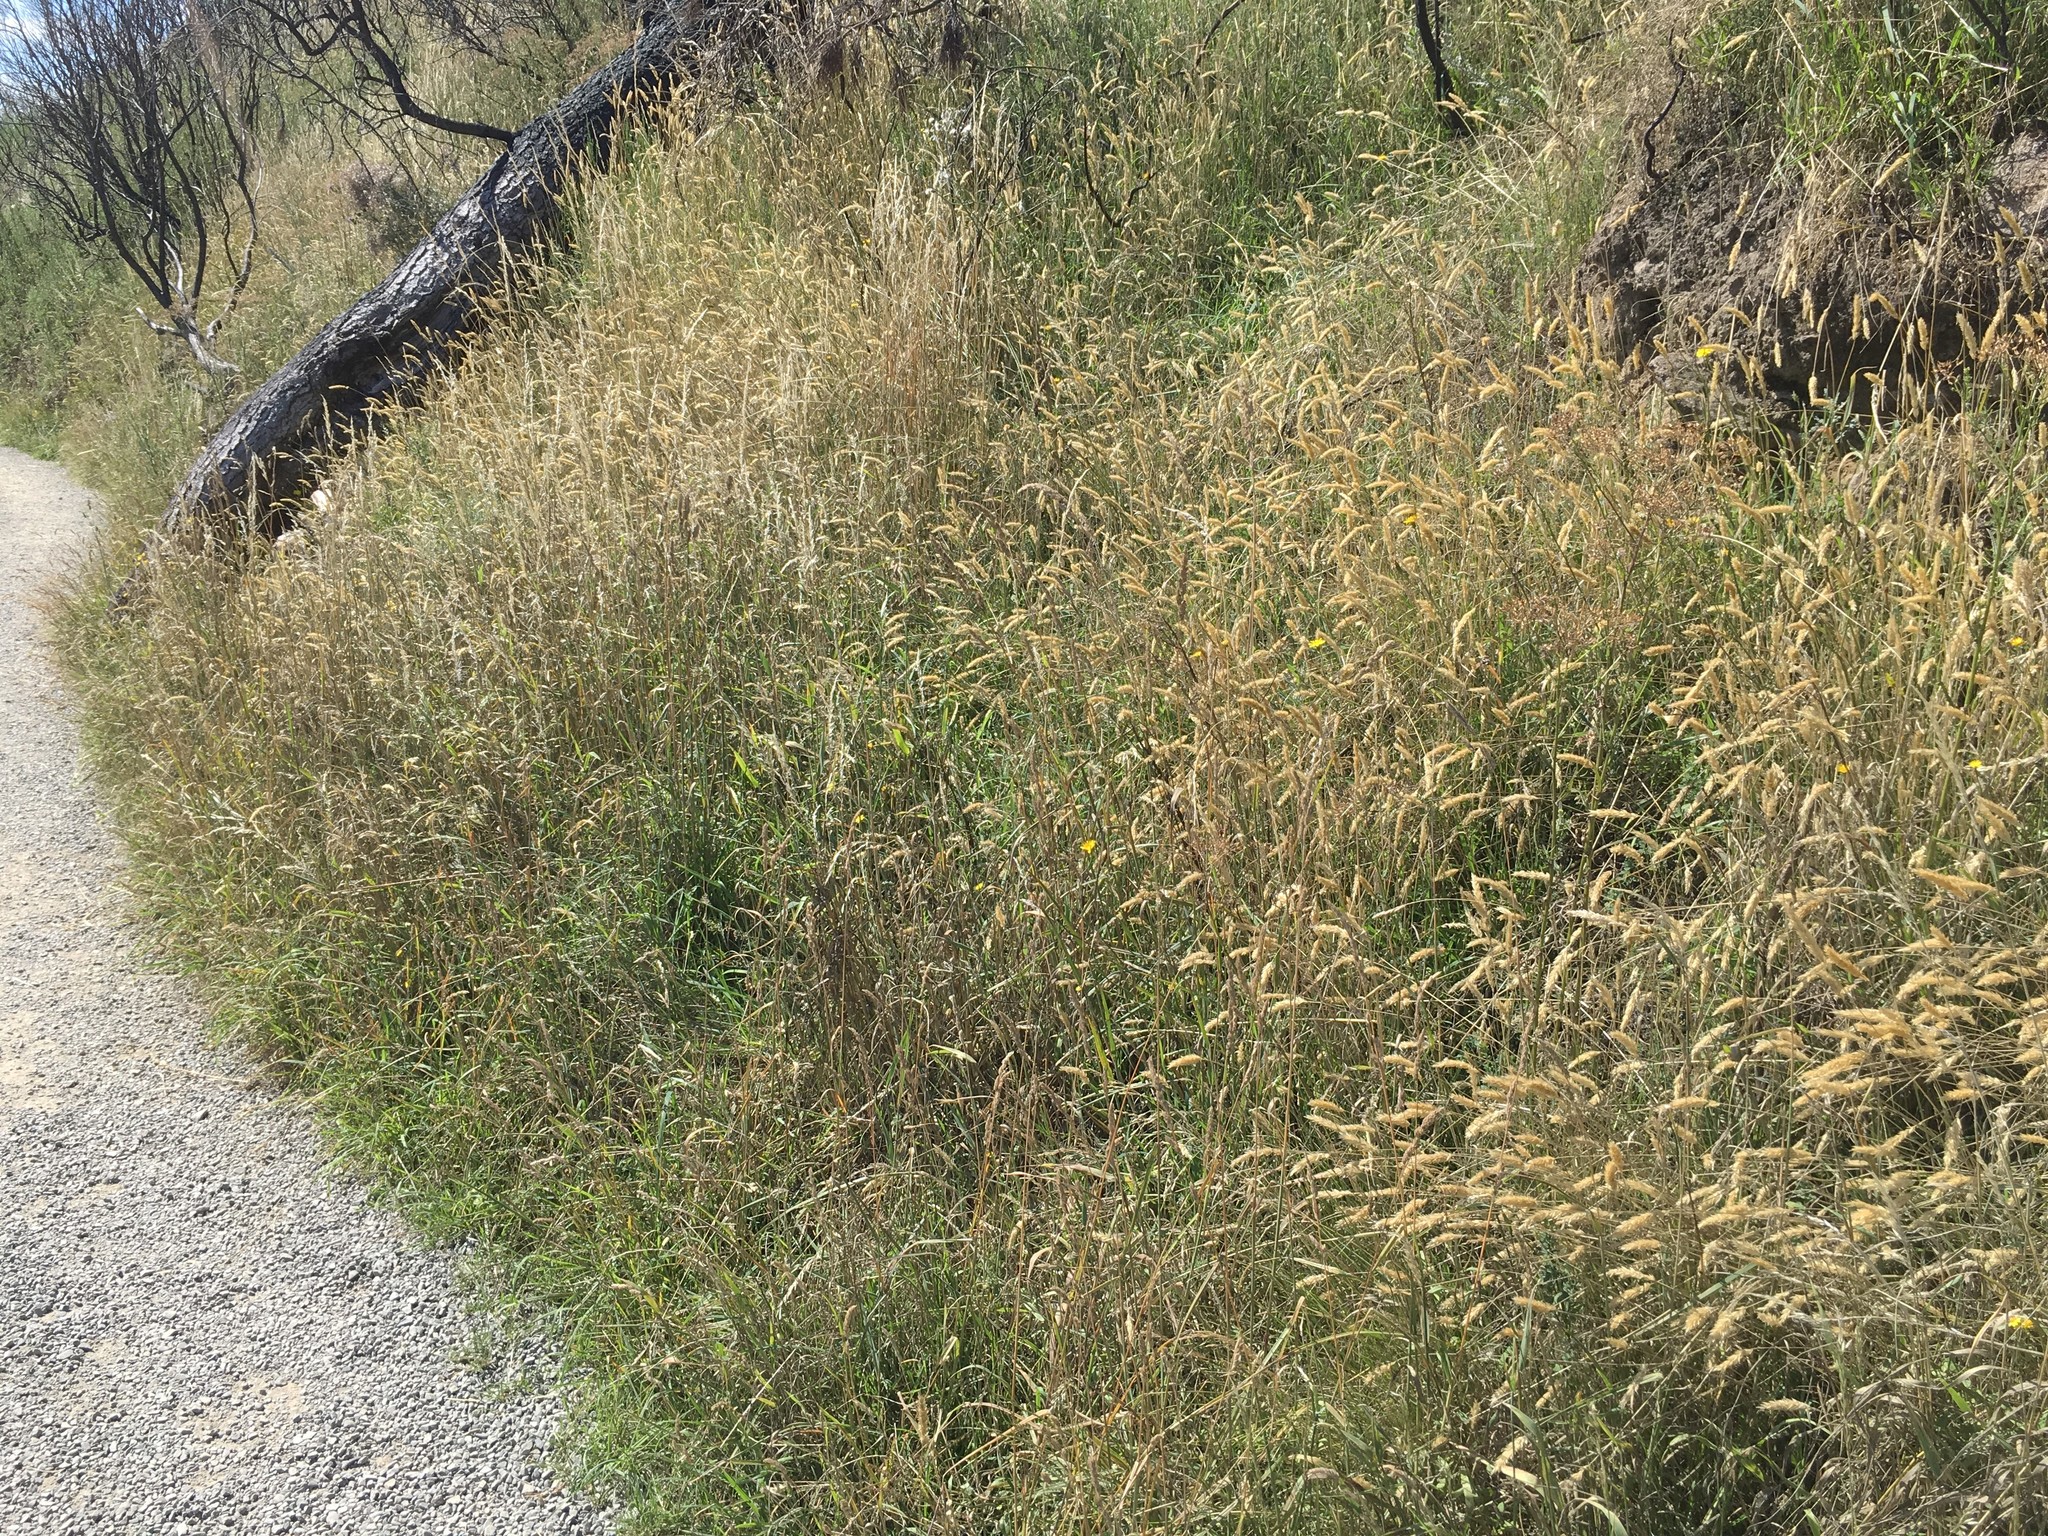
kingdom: Plantae
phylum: Tracheophyta
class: Liliopsida
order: Poales
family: Poaceae
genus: Dactylis
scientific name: Dactylis glomerata
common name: Orchardgrass
